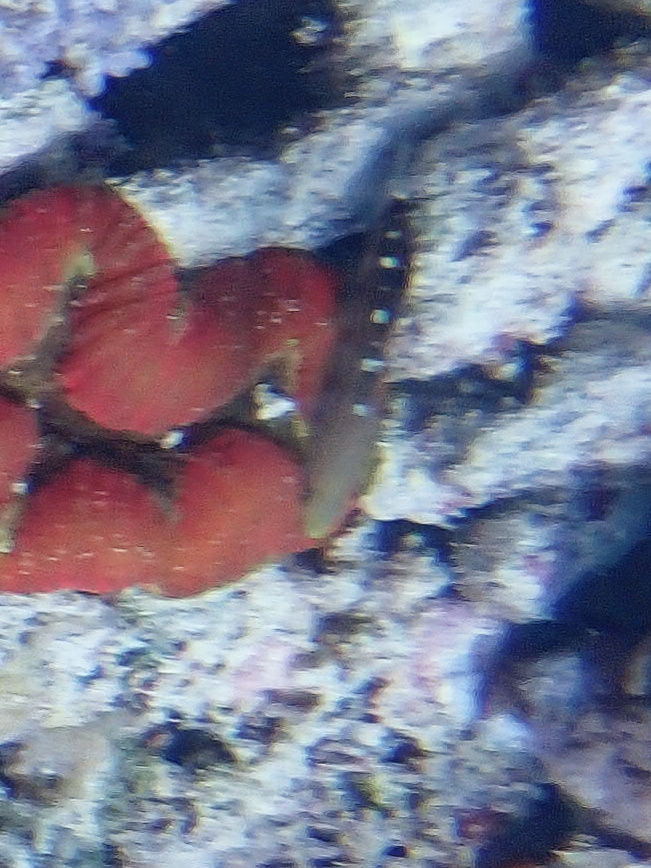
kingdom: Animalia
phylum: Chordata
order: Perciformes
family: Gobiidae
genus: Koumansetta
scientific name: Koumansetta rainfordi
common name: Old glory
